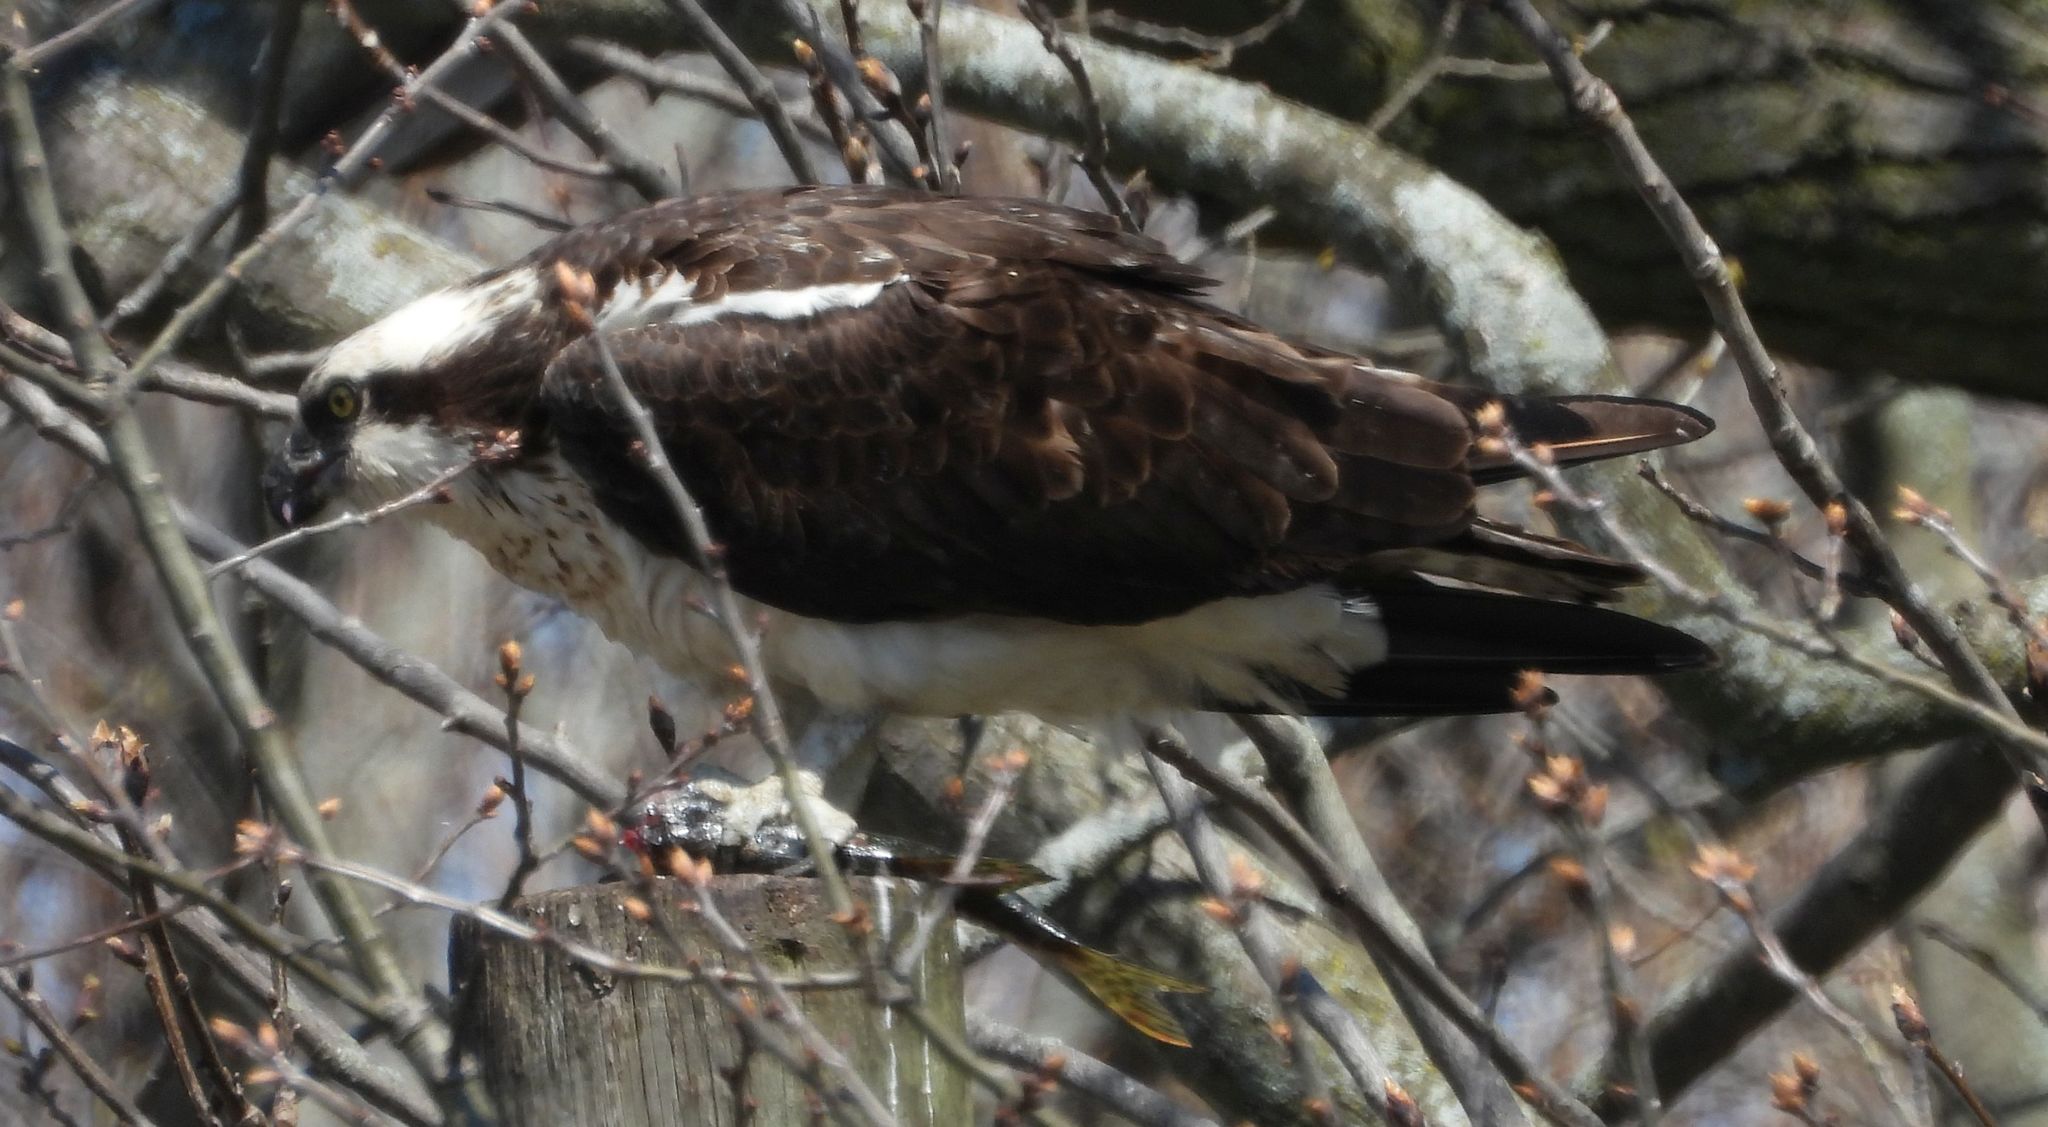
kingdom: Animalia
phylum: Chordata
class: Aves
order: Accipitriformes
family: Pandionidae
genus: Pandion
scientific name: Pandion haliaetus
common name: Osprey
